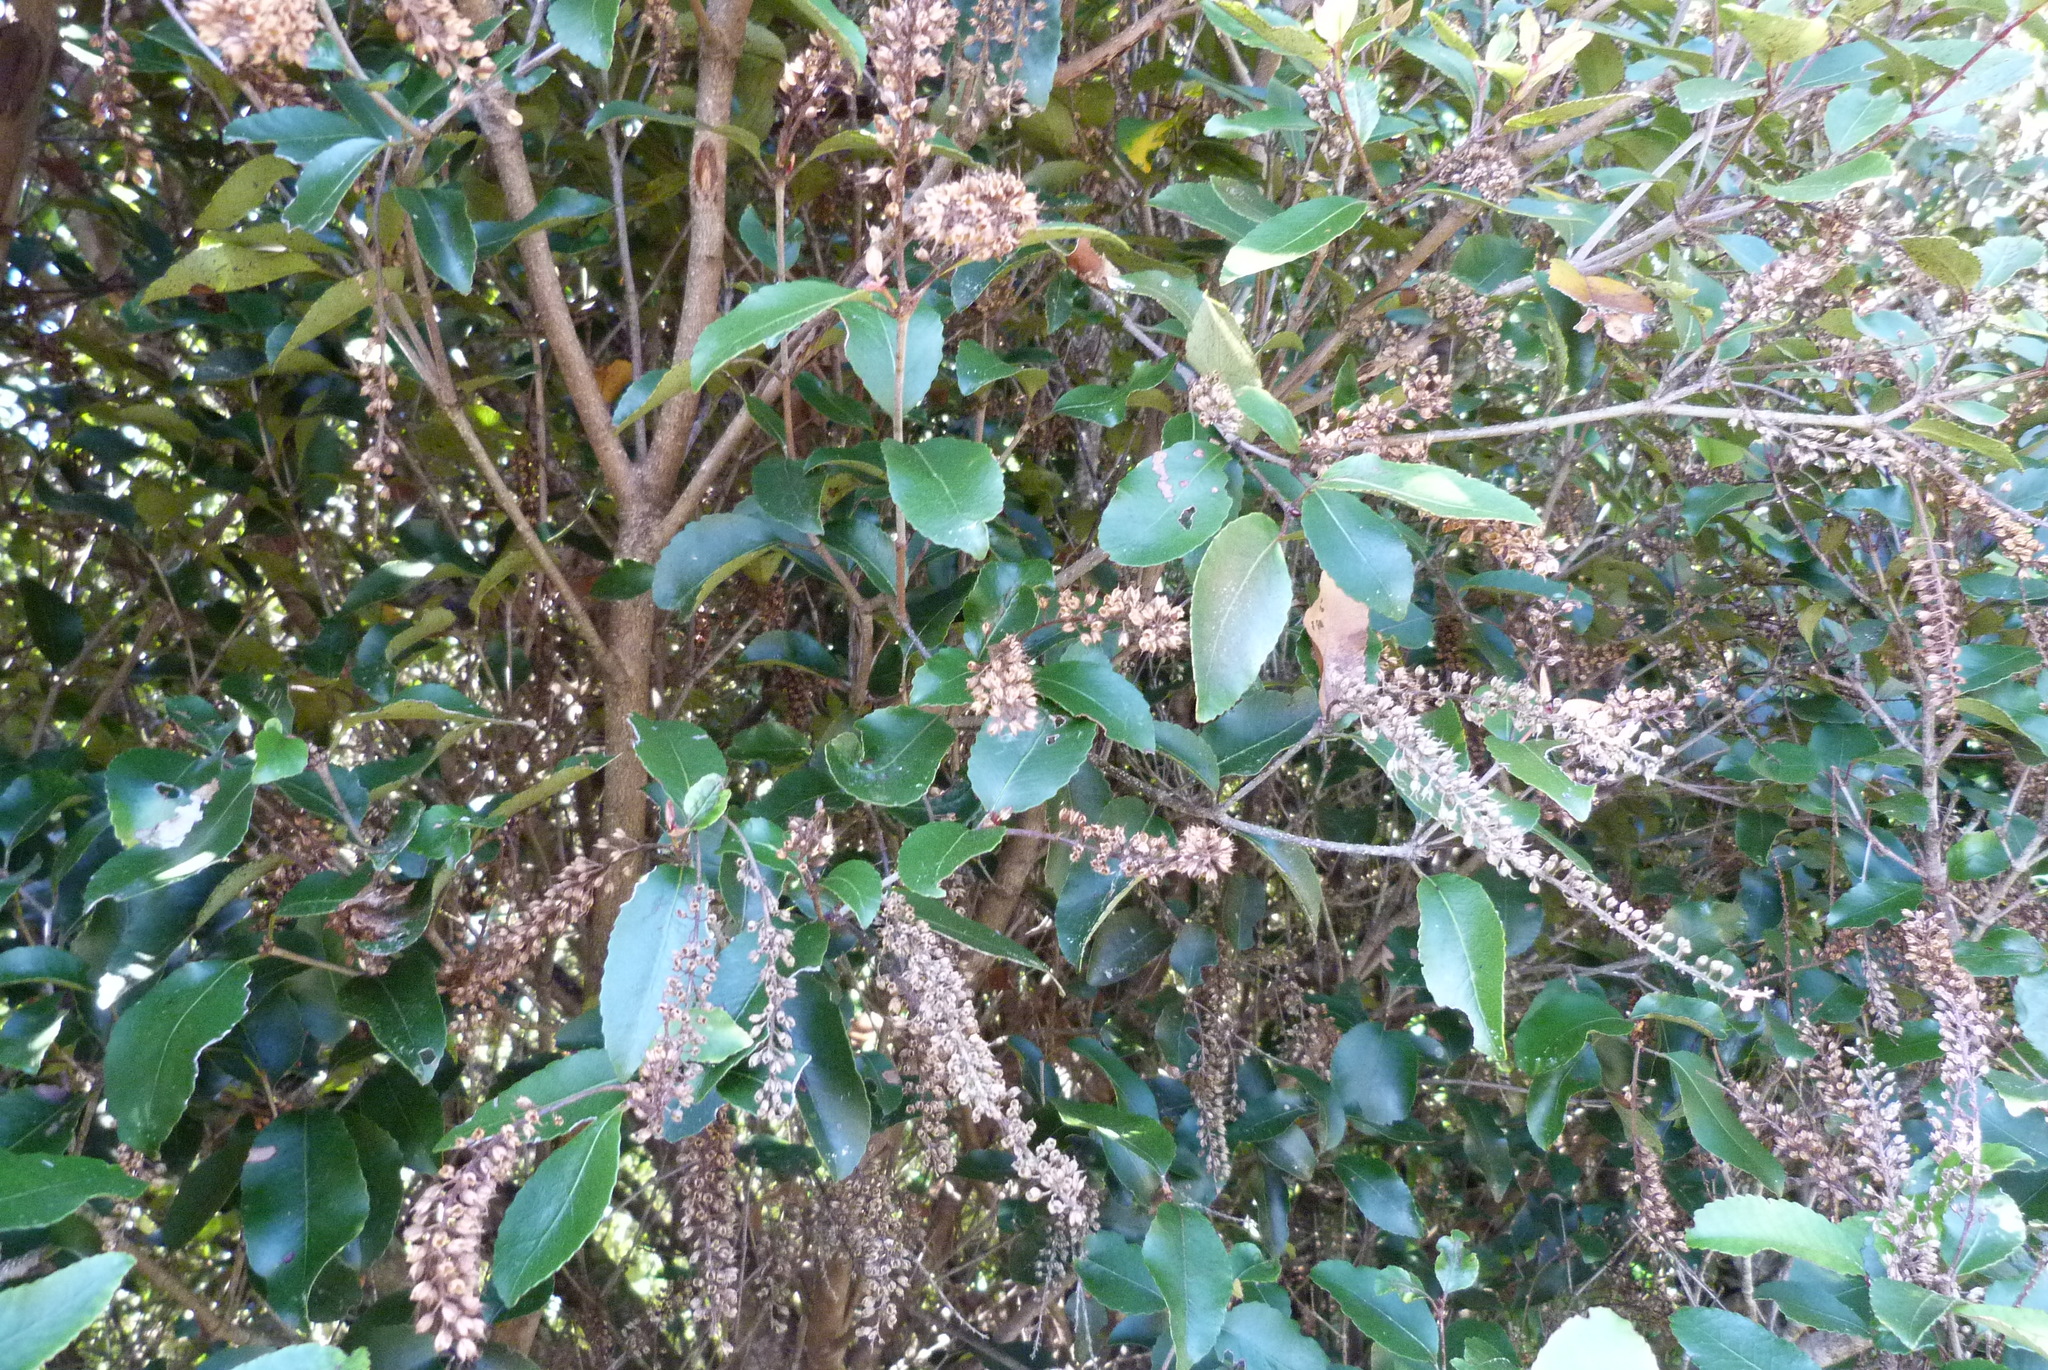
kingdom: Plantae
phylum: Tracheophyta
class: Magnoliopsida
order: Oxalidales
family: Cunoniaceae
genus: Pterophylla
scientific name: Pterophylla racemosa
